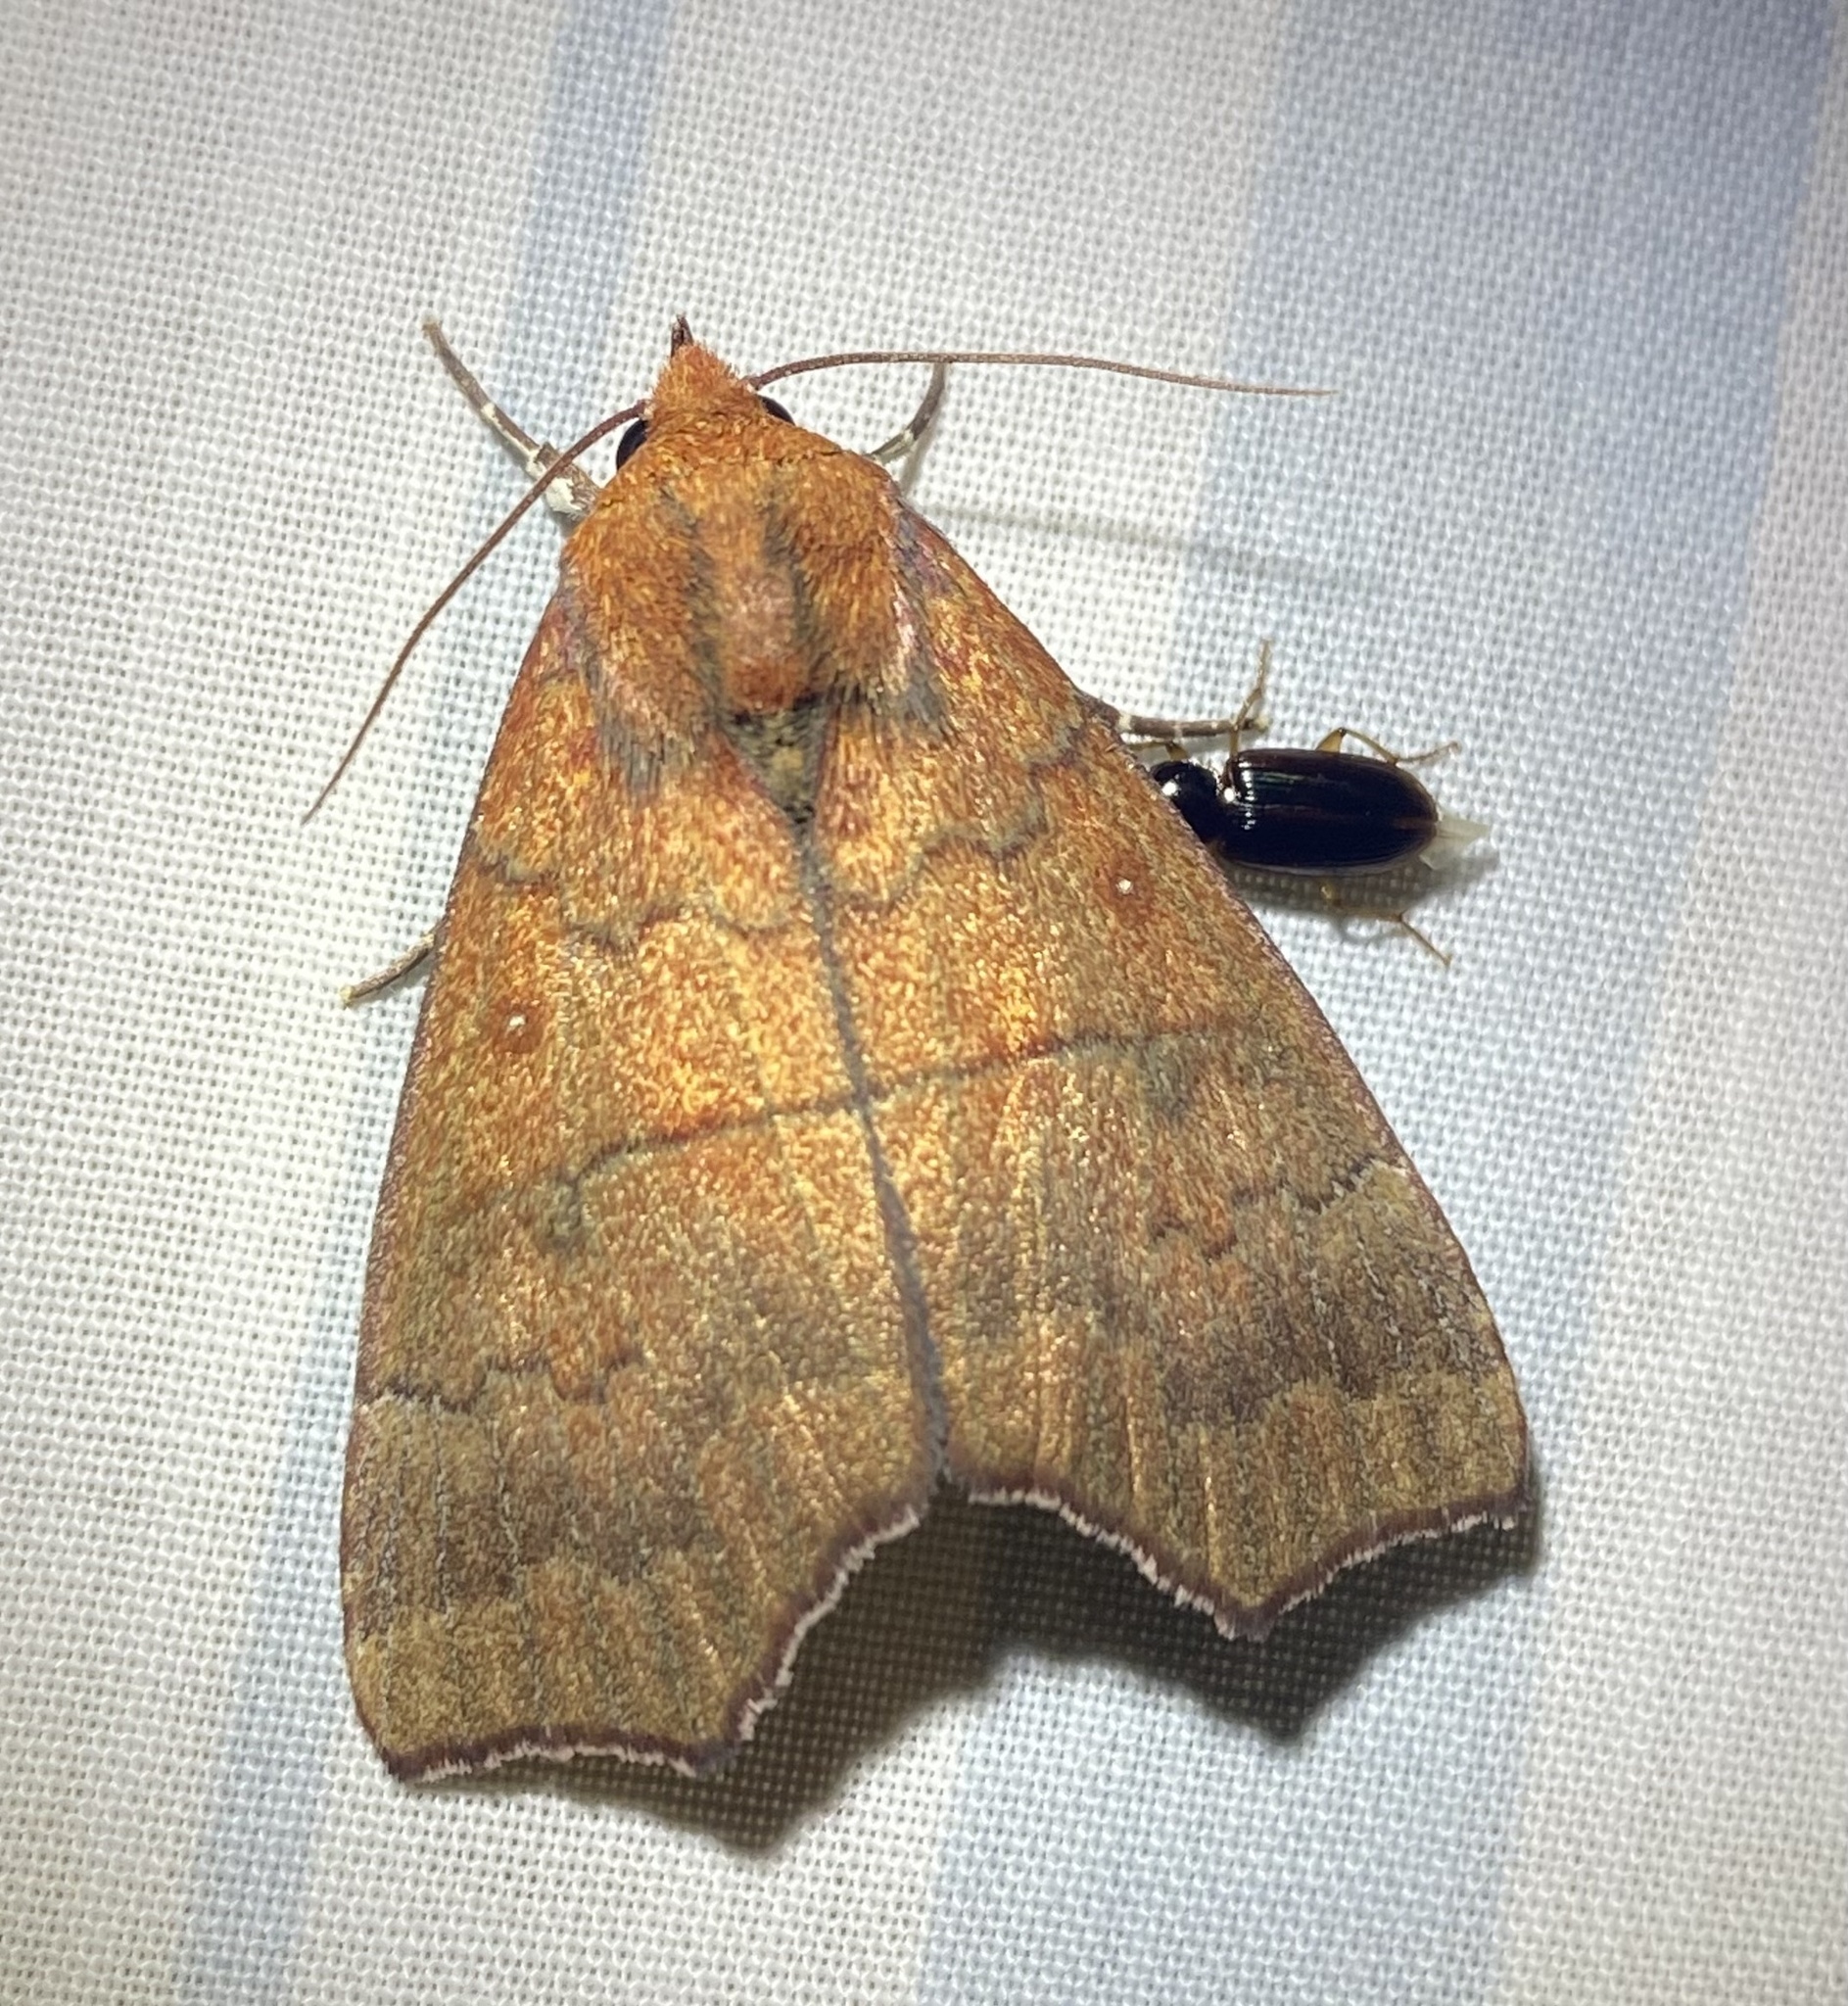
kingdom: Animalia
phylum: Arthropoda
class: Insecta
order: Lepidoptera
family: Erebidae
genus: Rusicada
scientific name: Rusicada privata
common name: Hibiscus leaf caterpillar moth
